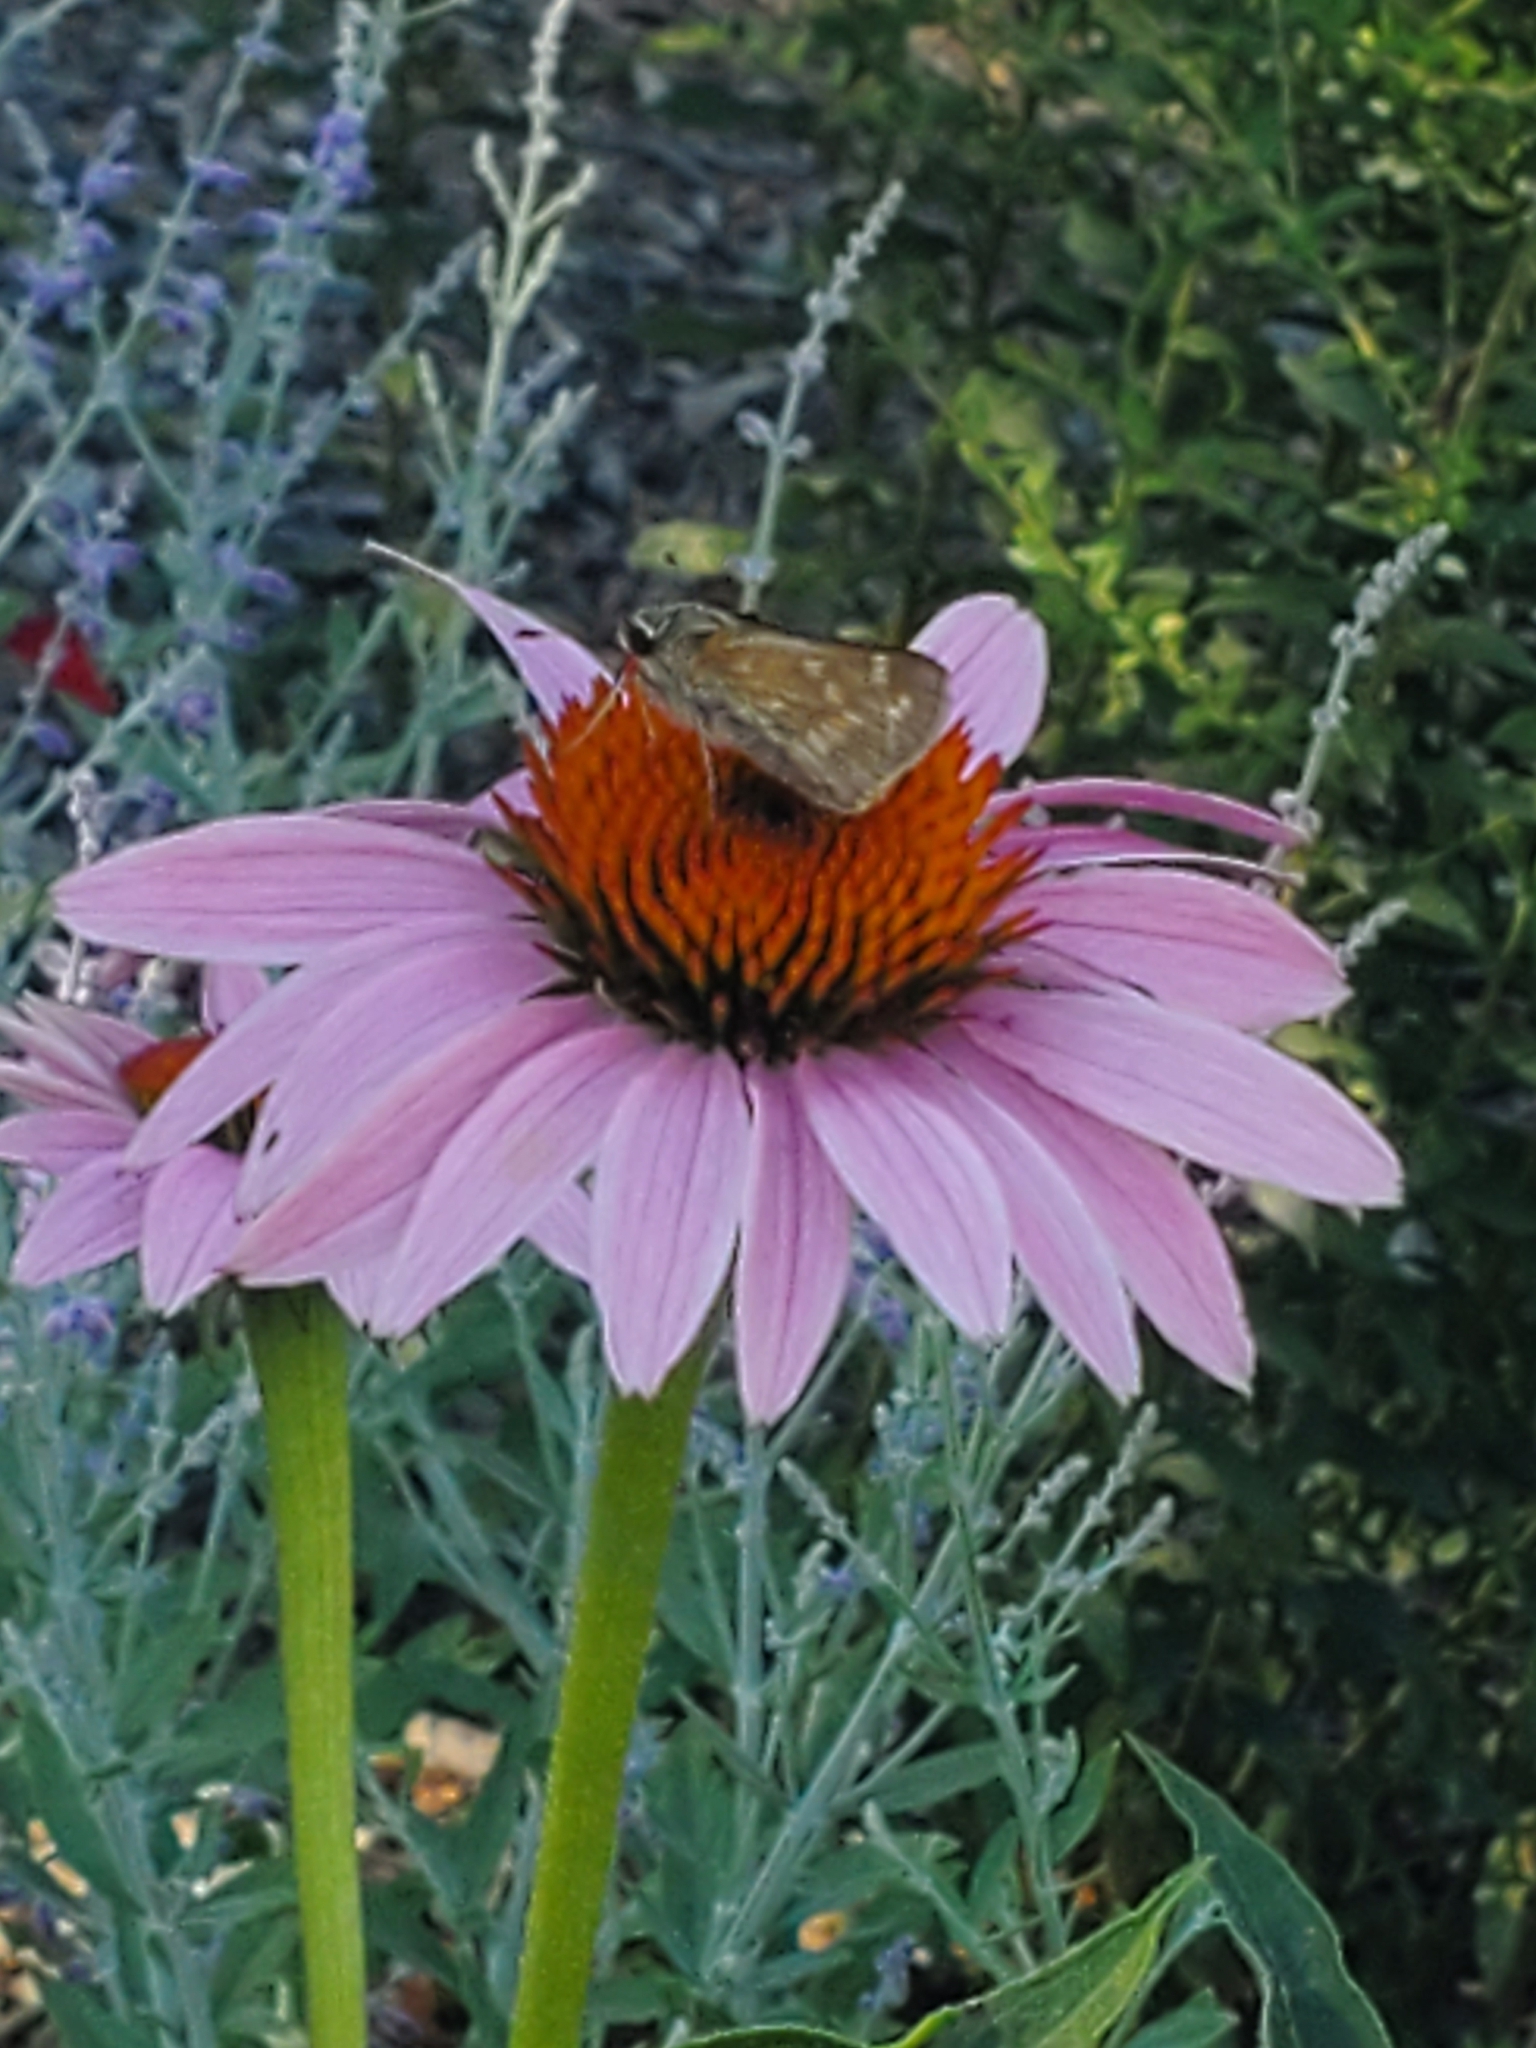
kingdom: Animalia
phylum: Arthropoda
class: Insecta
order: Lepidoptera
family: Hesperiidae
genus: Atalopedes
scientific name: Atalopedes
